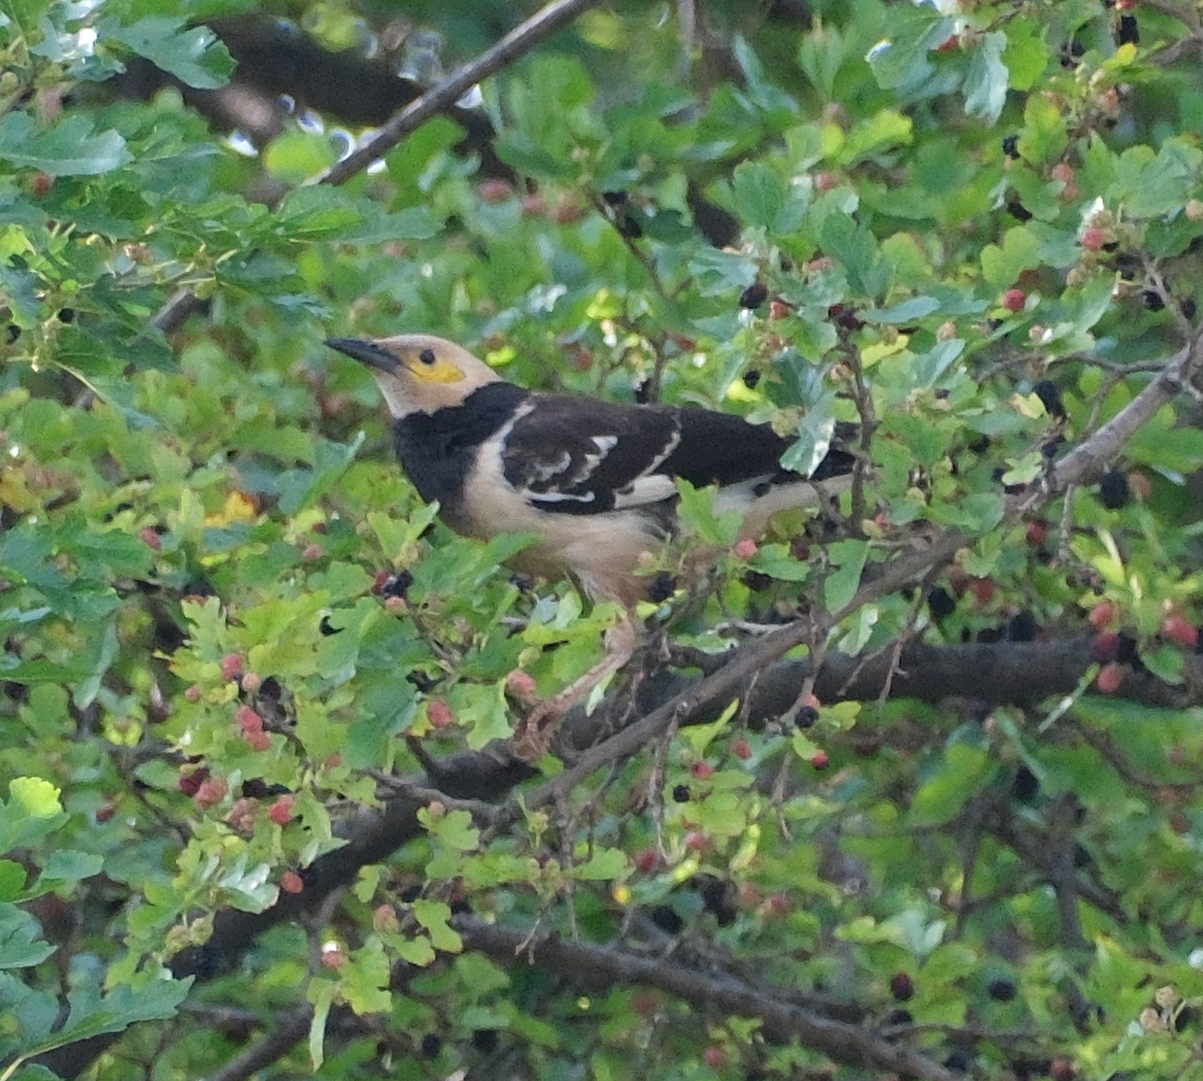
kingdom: Animalia
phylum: Chordata
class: Aves
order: Passeriformes
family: Sturnidae
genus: Gracupica
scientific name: Gracupica nigricollis
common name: Black-collared starling
